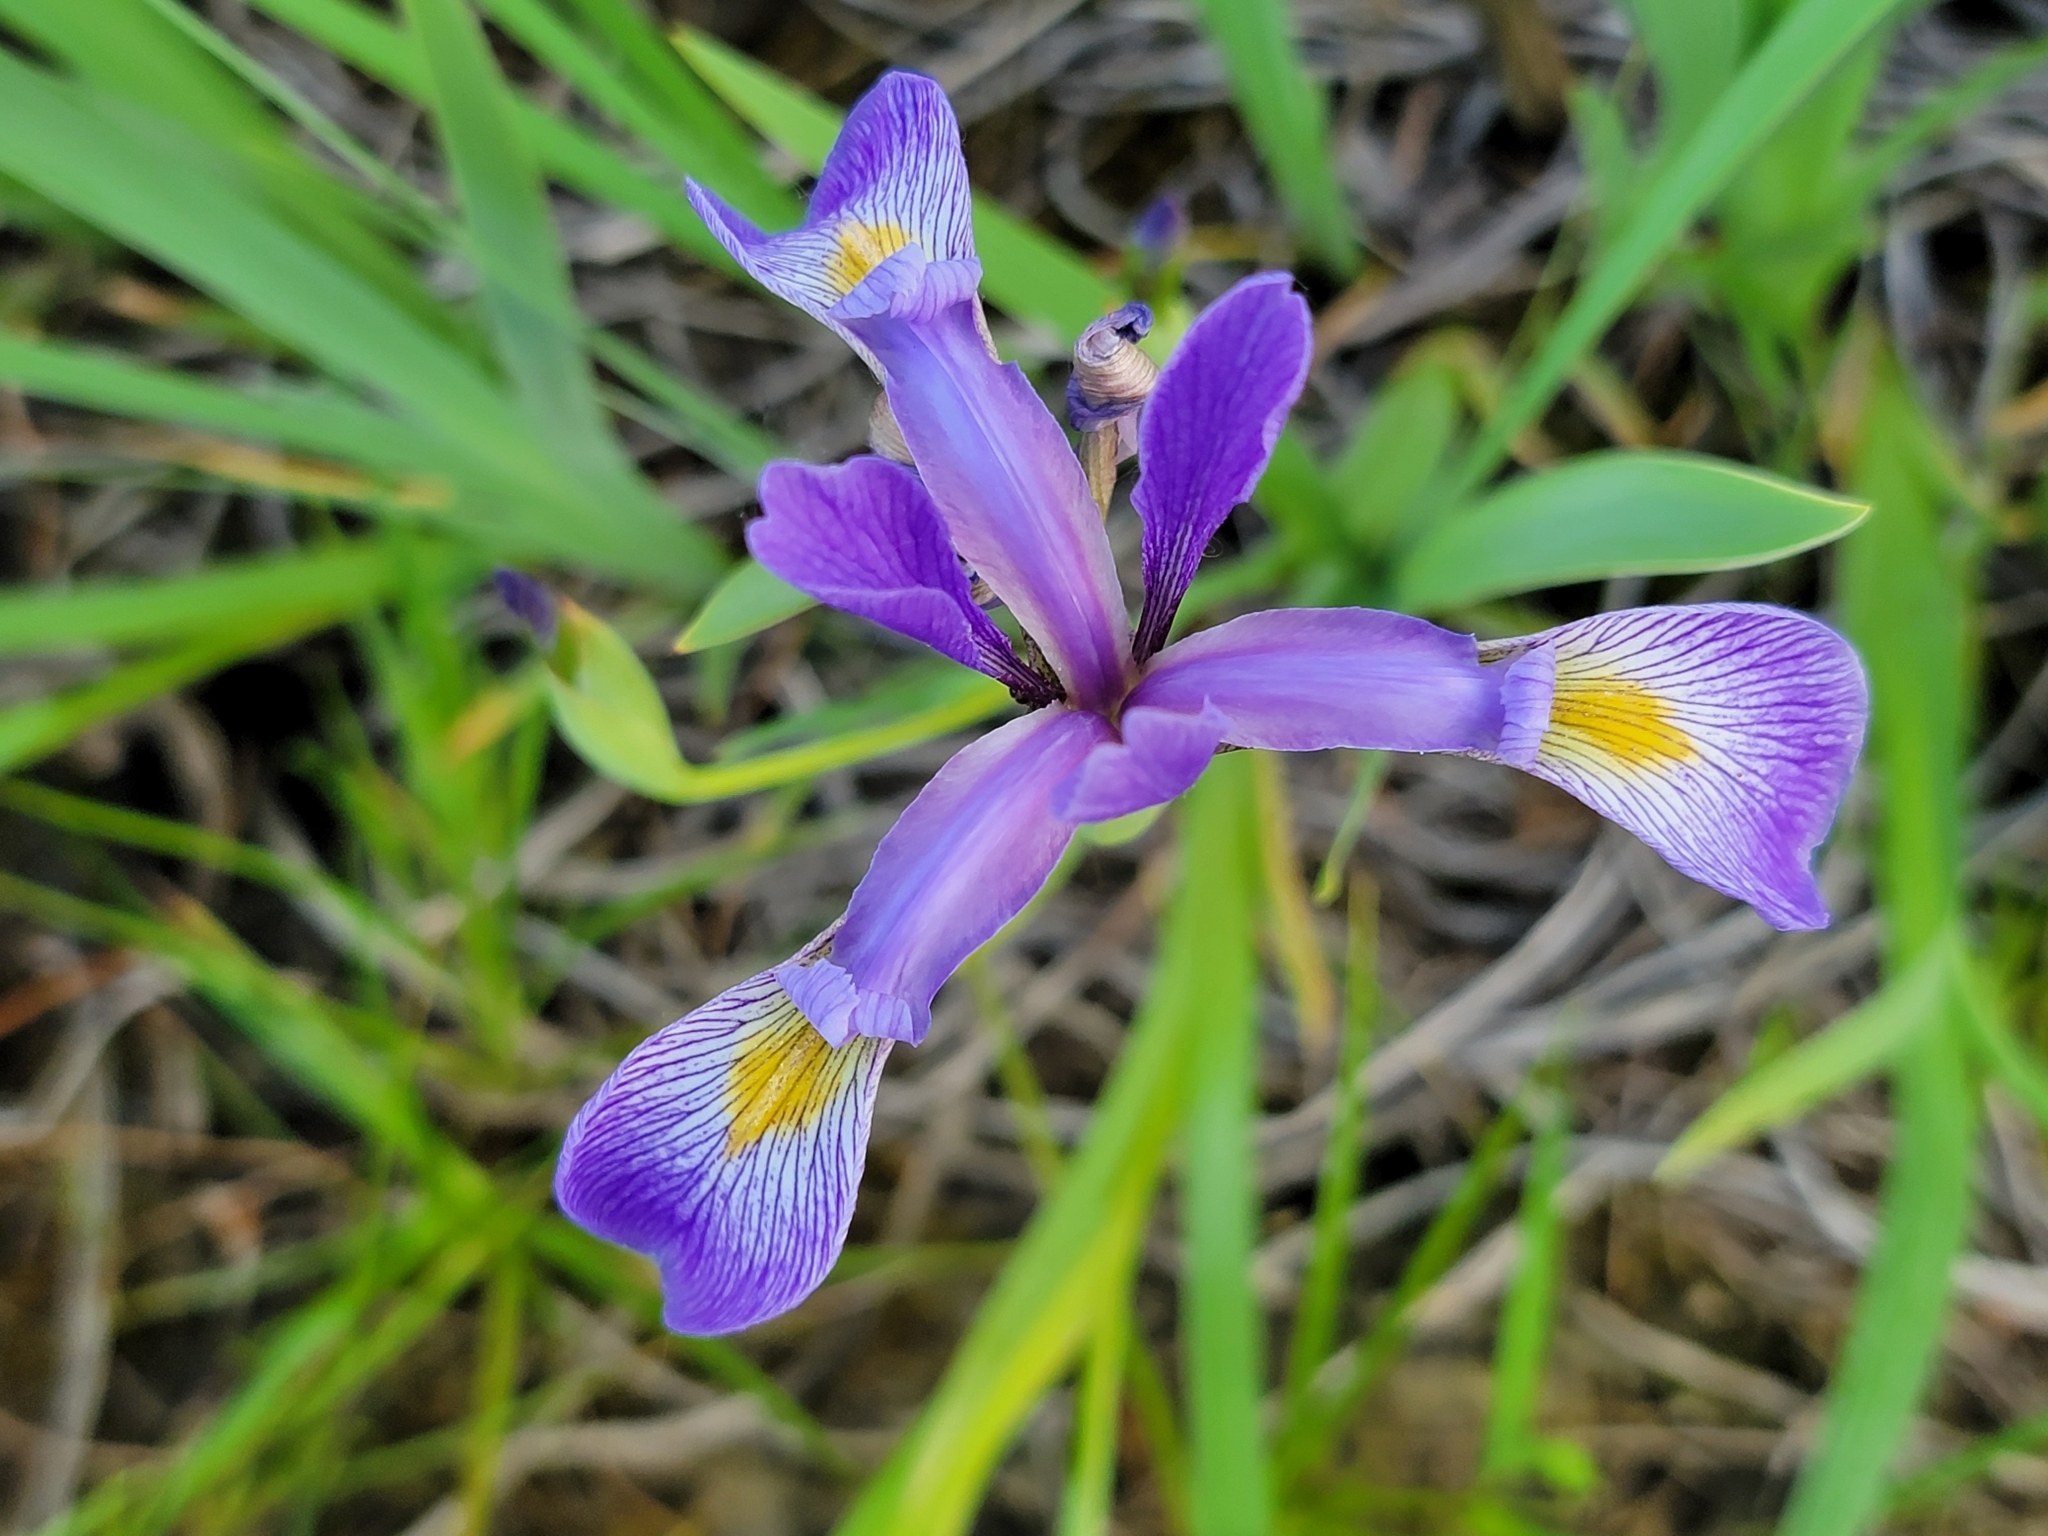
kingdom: Plantae
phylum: Tracheophyta
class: Liliopsida
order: Asparagales
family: Iridaceae
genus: Iris
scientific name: Iris virginica
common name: Southern blue flag
